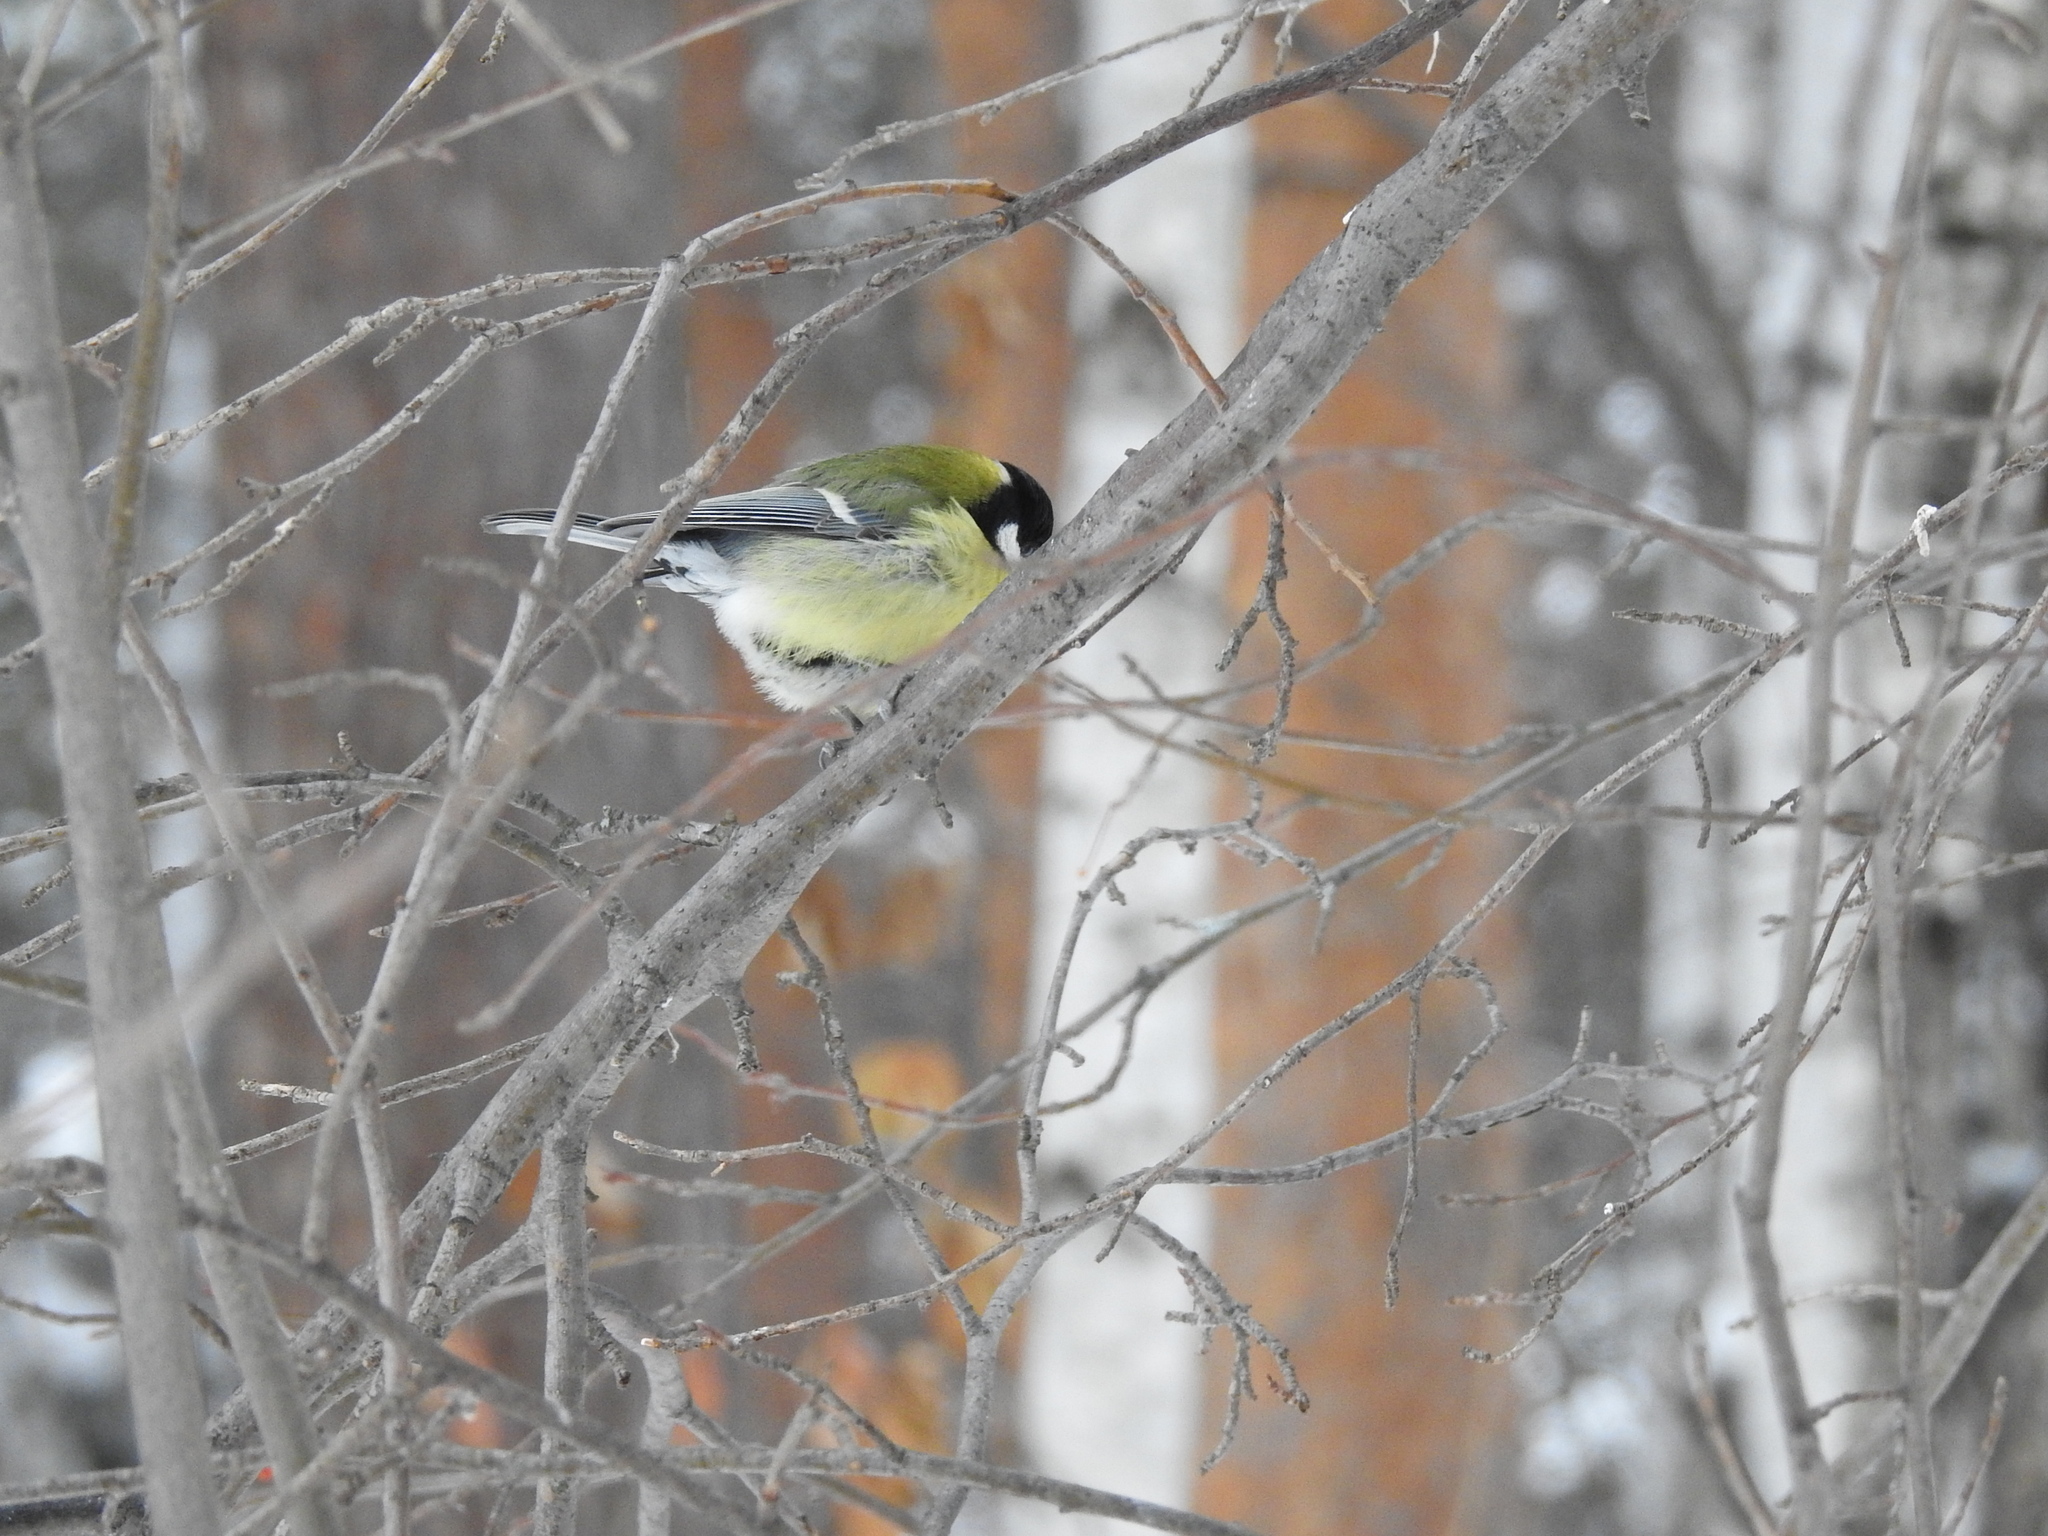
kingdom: Animalia
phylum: Chordata
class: Aves
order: Passeriformes
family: Paridae
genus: Parus
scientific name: Parus major
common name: Great tit
